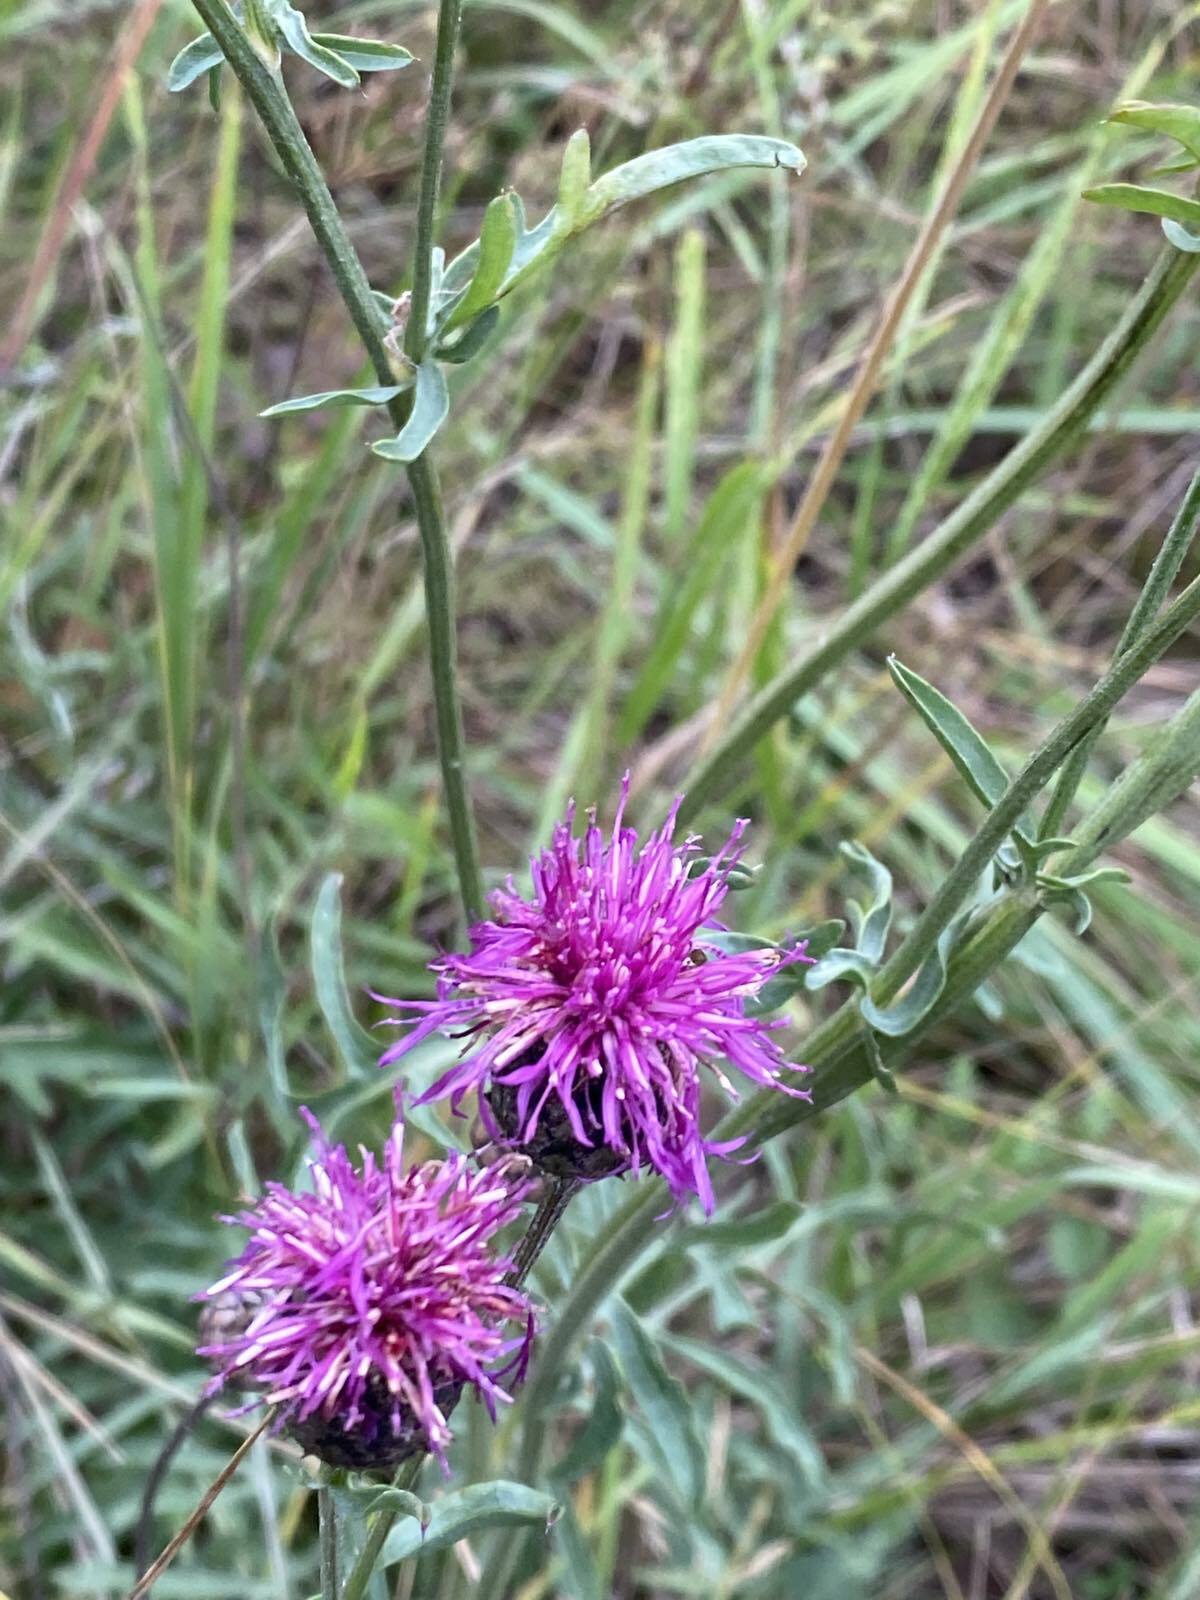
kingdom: Plantae
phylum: Tracheophyta
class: Magnoliopsida
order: Asterales
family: Asteraceae
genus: Centaurea
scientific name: Centaurea scabiosa
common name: Greater knapweed
